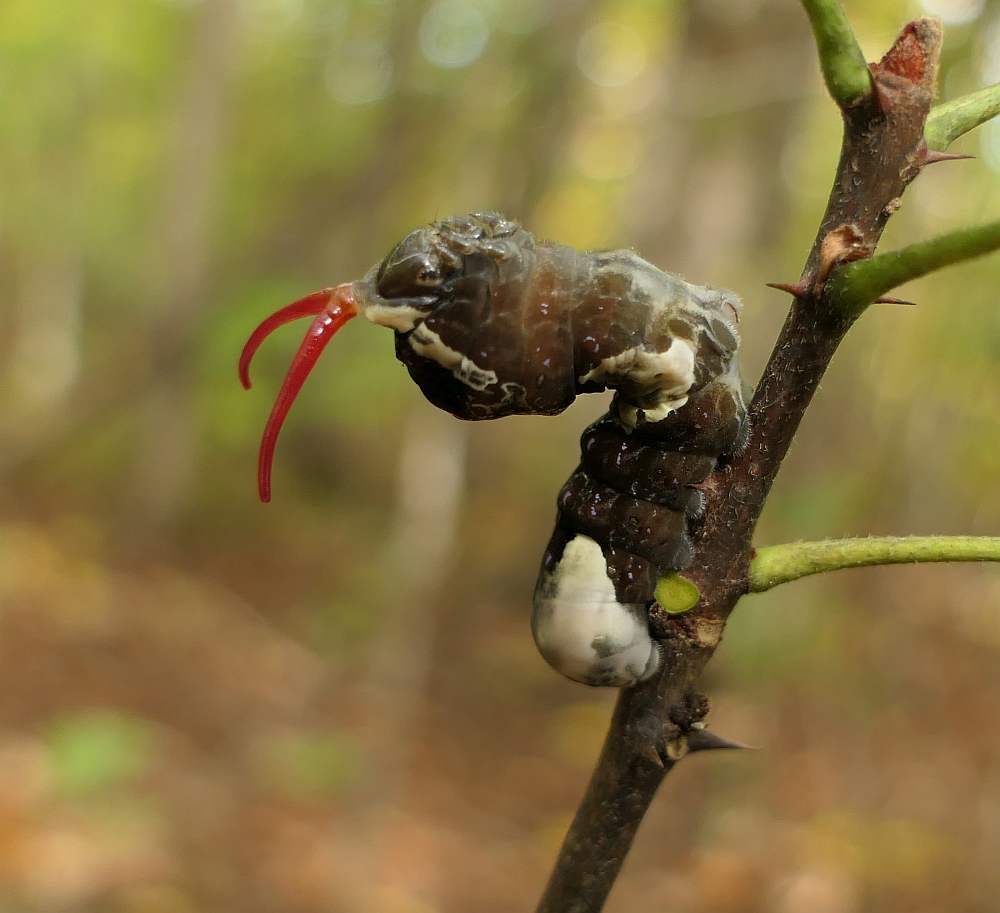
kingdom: Animalia
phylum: Arthropoda
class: Insecta
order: Lepidoptera
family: Papilionidae
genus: Papilio
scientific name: Papilio cresphontes
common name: Giant swallowtail
